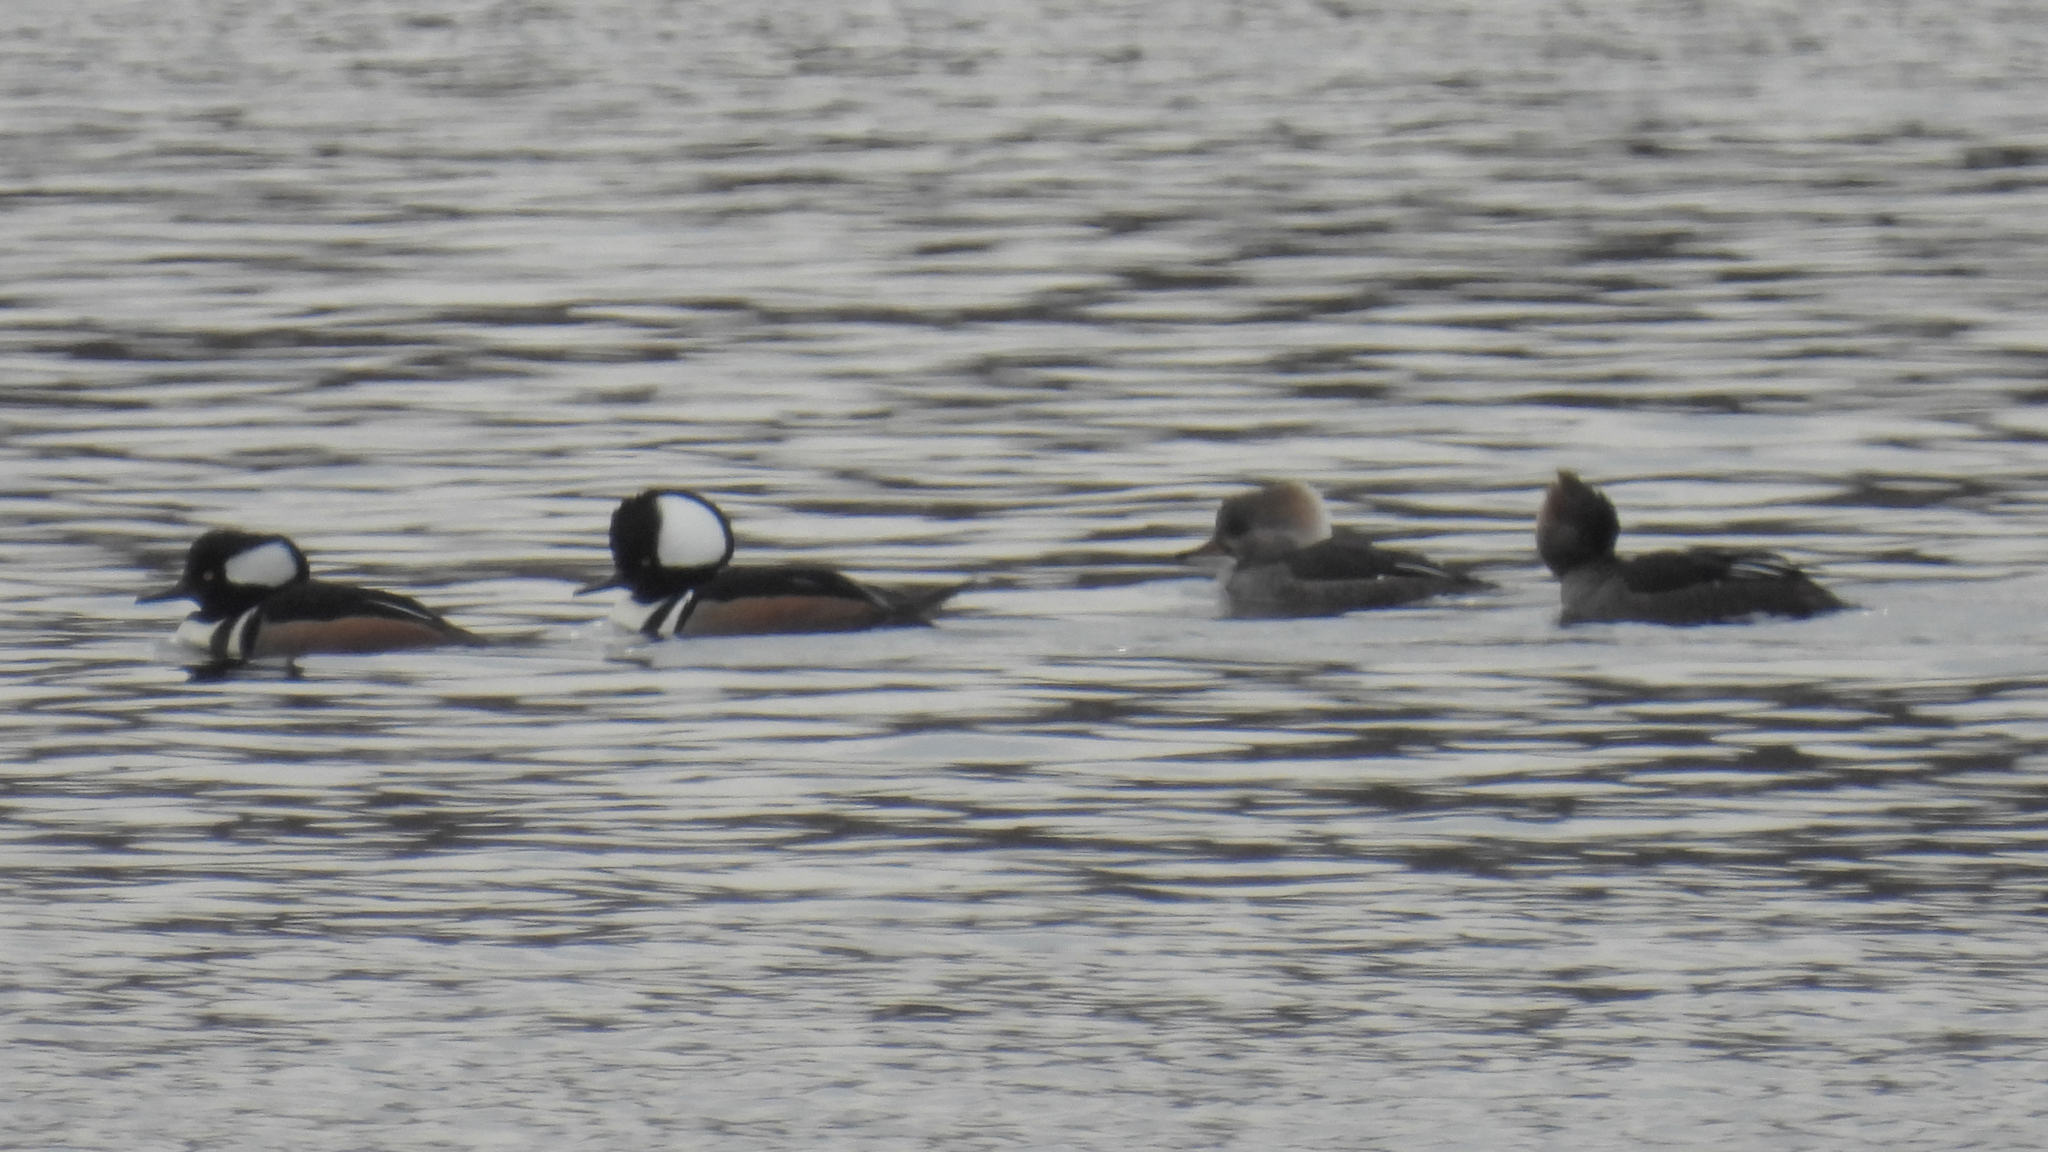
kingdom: Animalia
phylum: Chordata
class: Aves
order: Anseriformes
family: Anatidae
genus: Lophodytes
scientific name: Lophodytes cucullatus
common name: Hooded merganser
